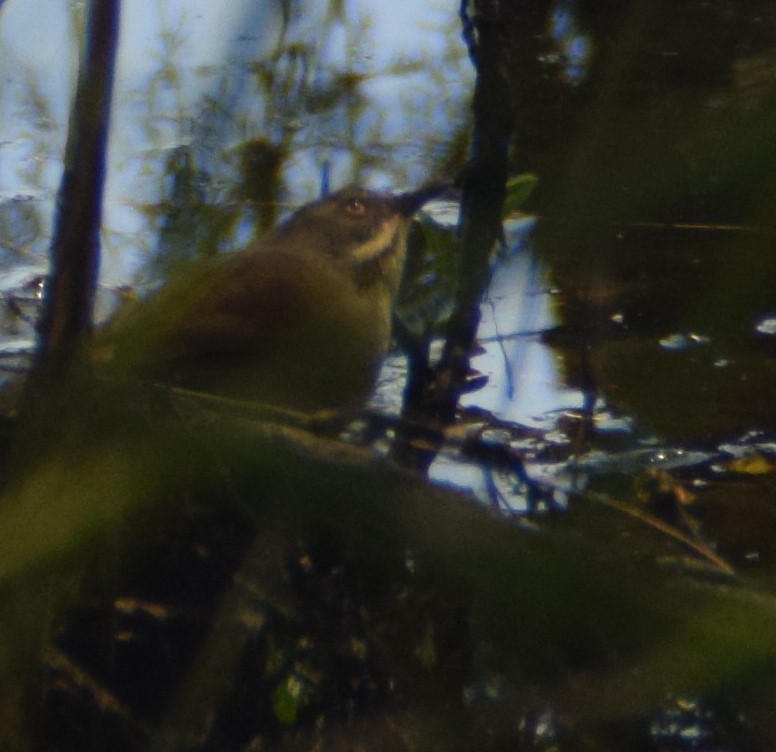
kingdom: Animalia
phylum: Chordata
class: Aves
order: Passeriformes
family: Acanthizidae
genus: Sericornis
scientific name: Sericornis frontalis
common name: White-browed scrubwren
